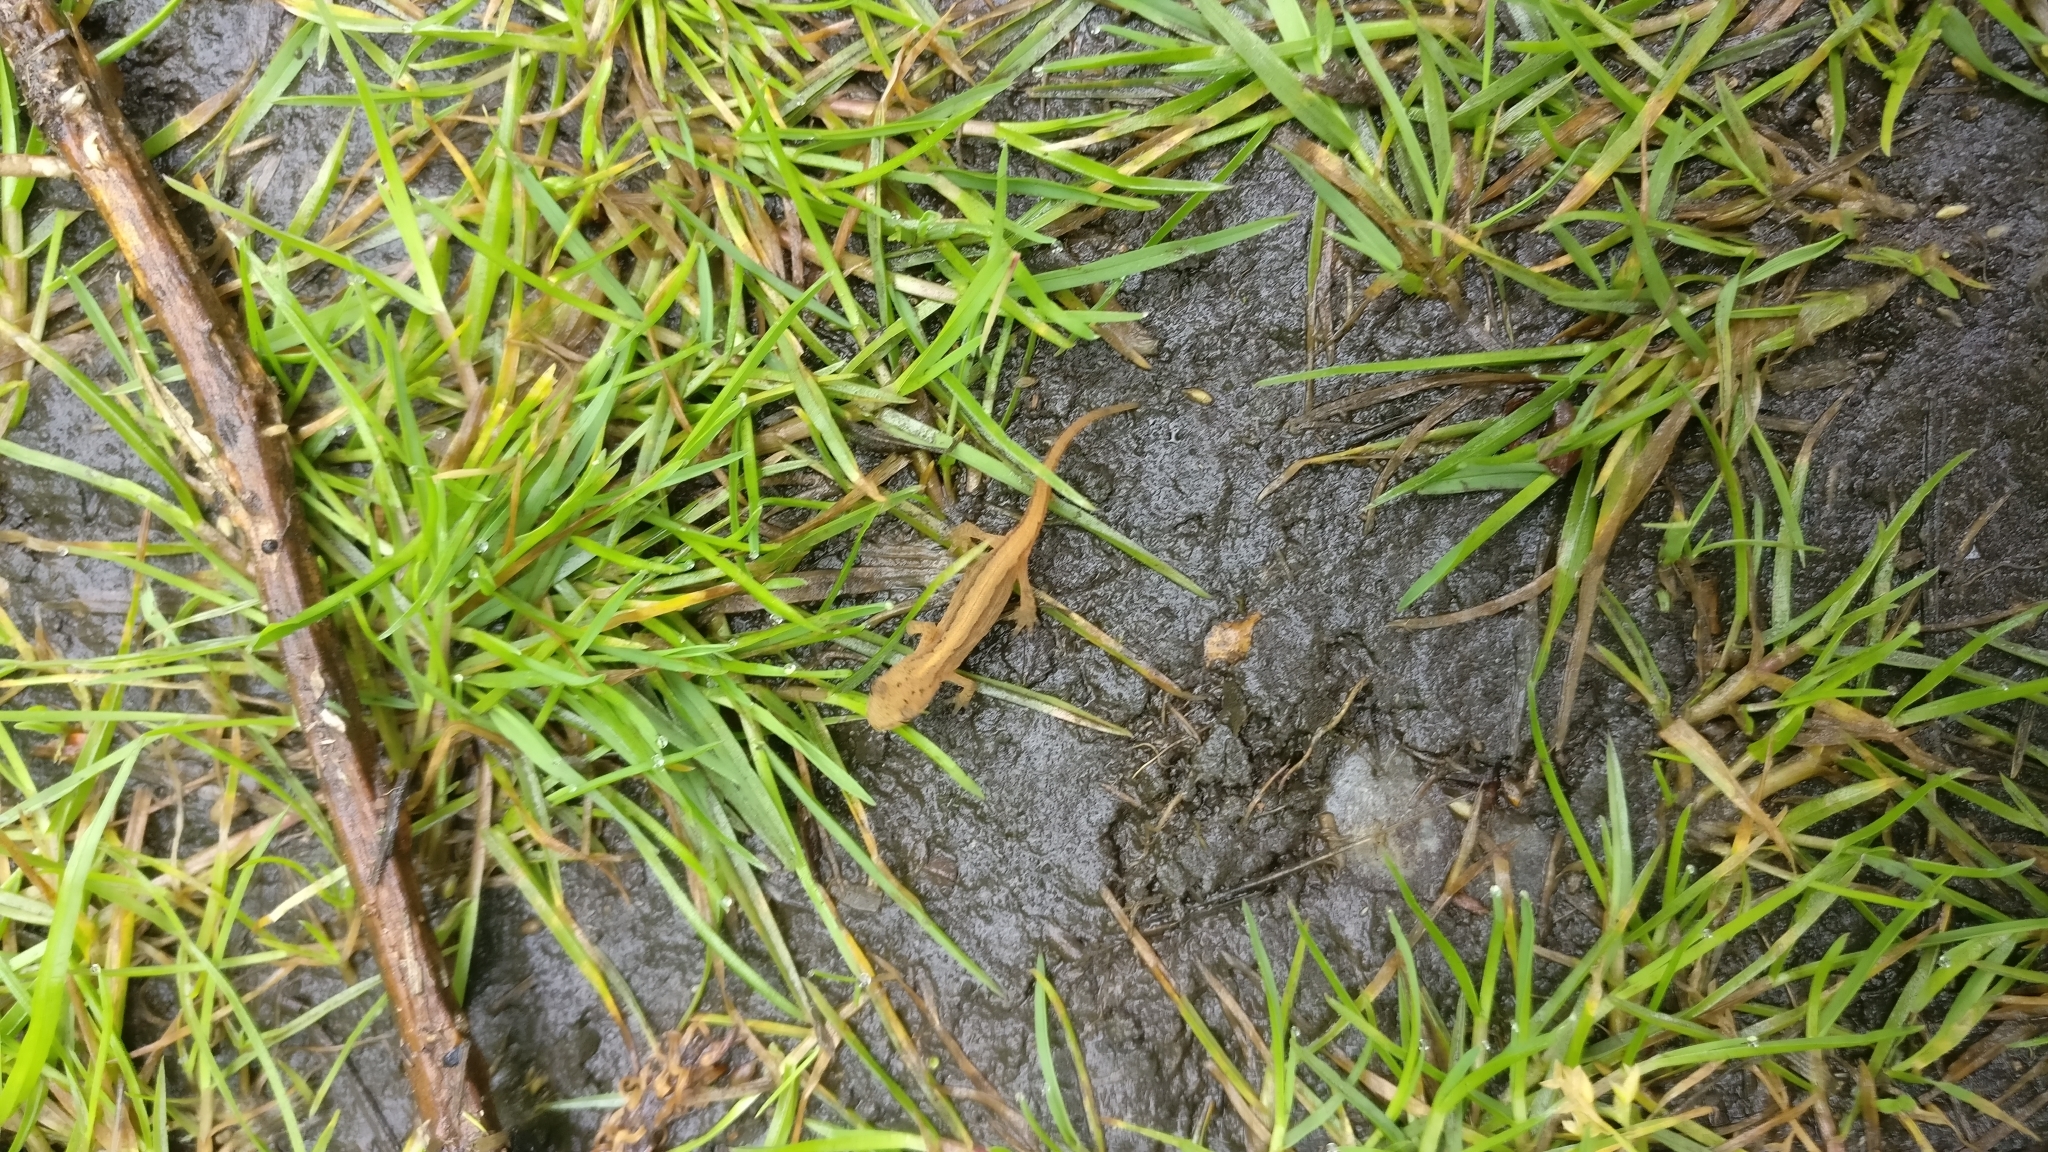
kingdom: Animalia
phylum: Chordata
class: Amphibia
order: Caudata
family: Salamandridae
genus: Lissotriton
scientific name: Lissotriton vulgaris
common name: Smooth newt
